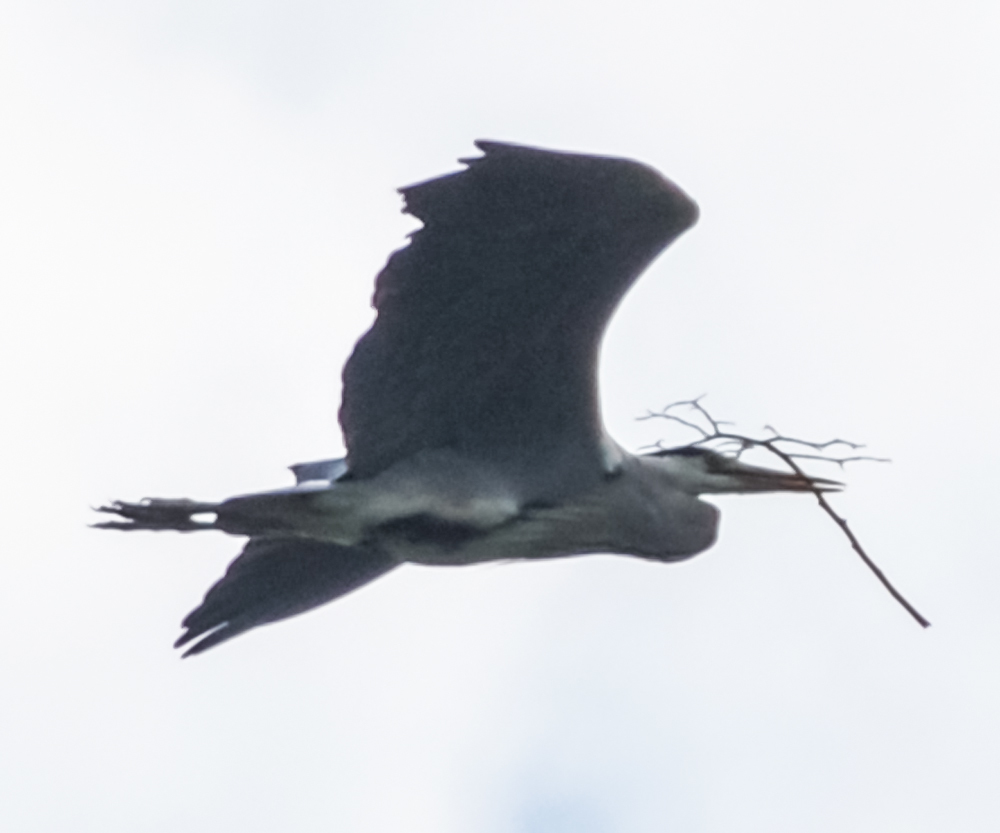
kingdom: Animalia
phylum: Chordata
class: Aves
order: Pelecaniformes
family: Ardeidae
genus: Ardea
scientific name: Ardea cinerea
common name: Grey heron
